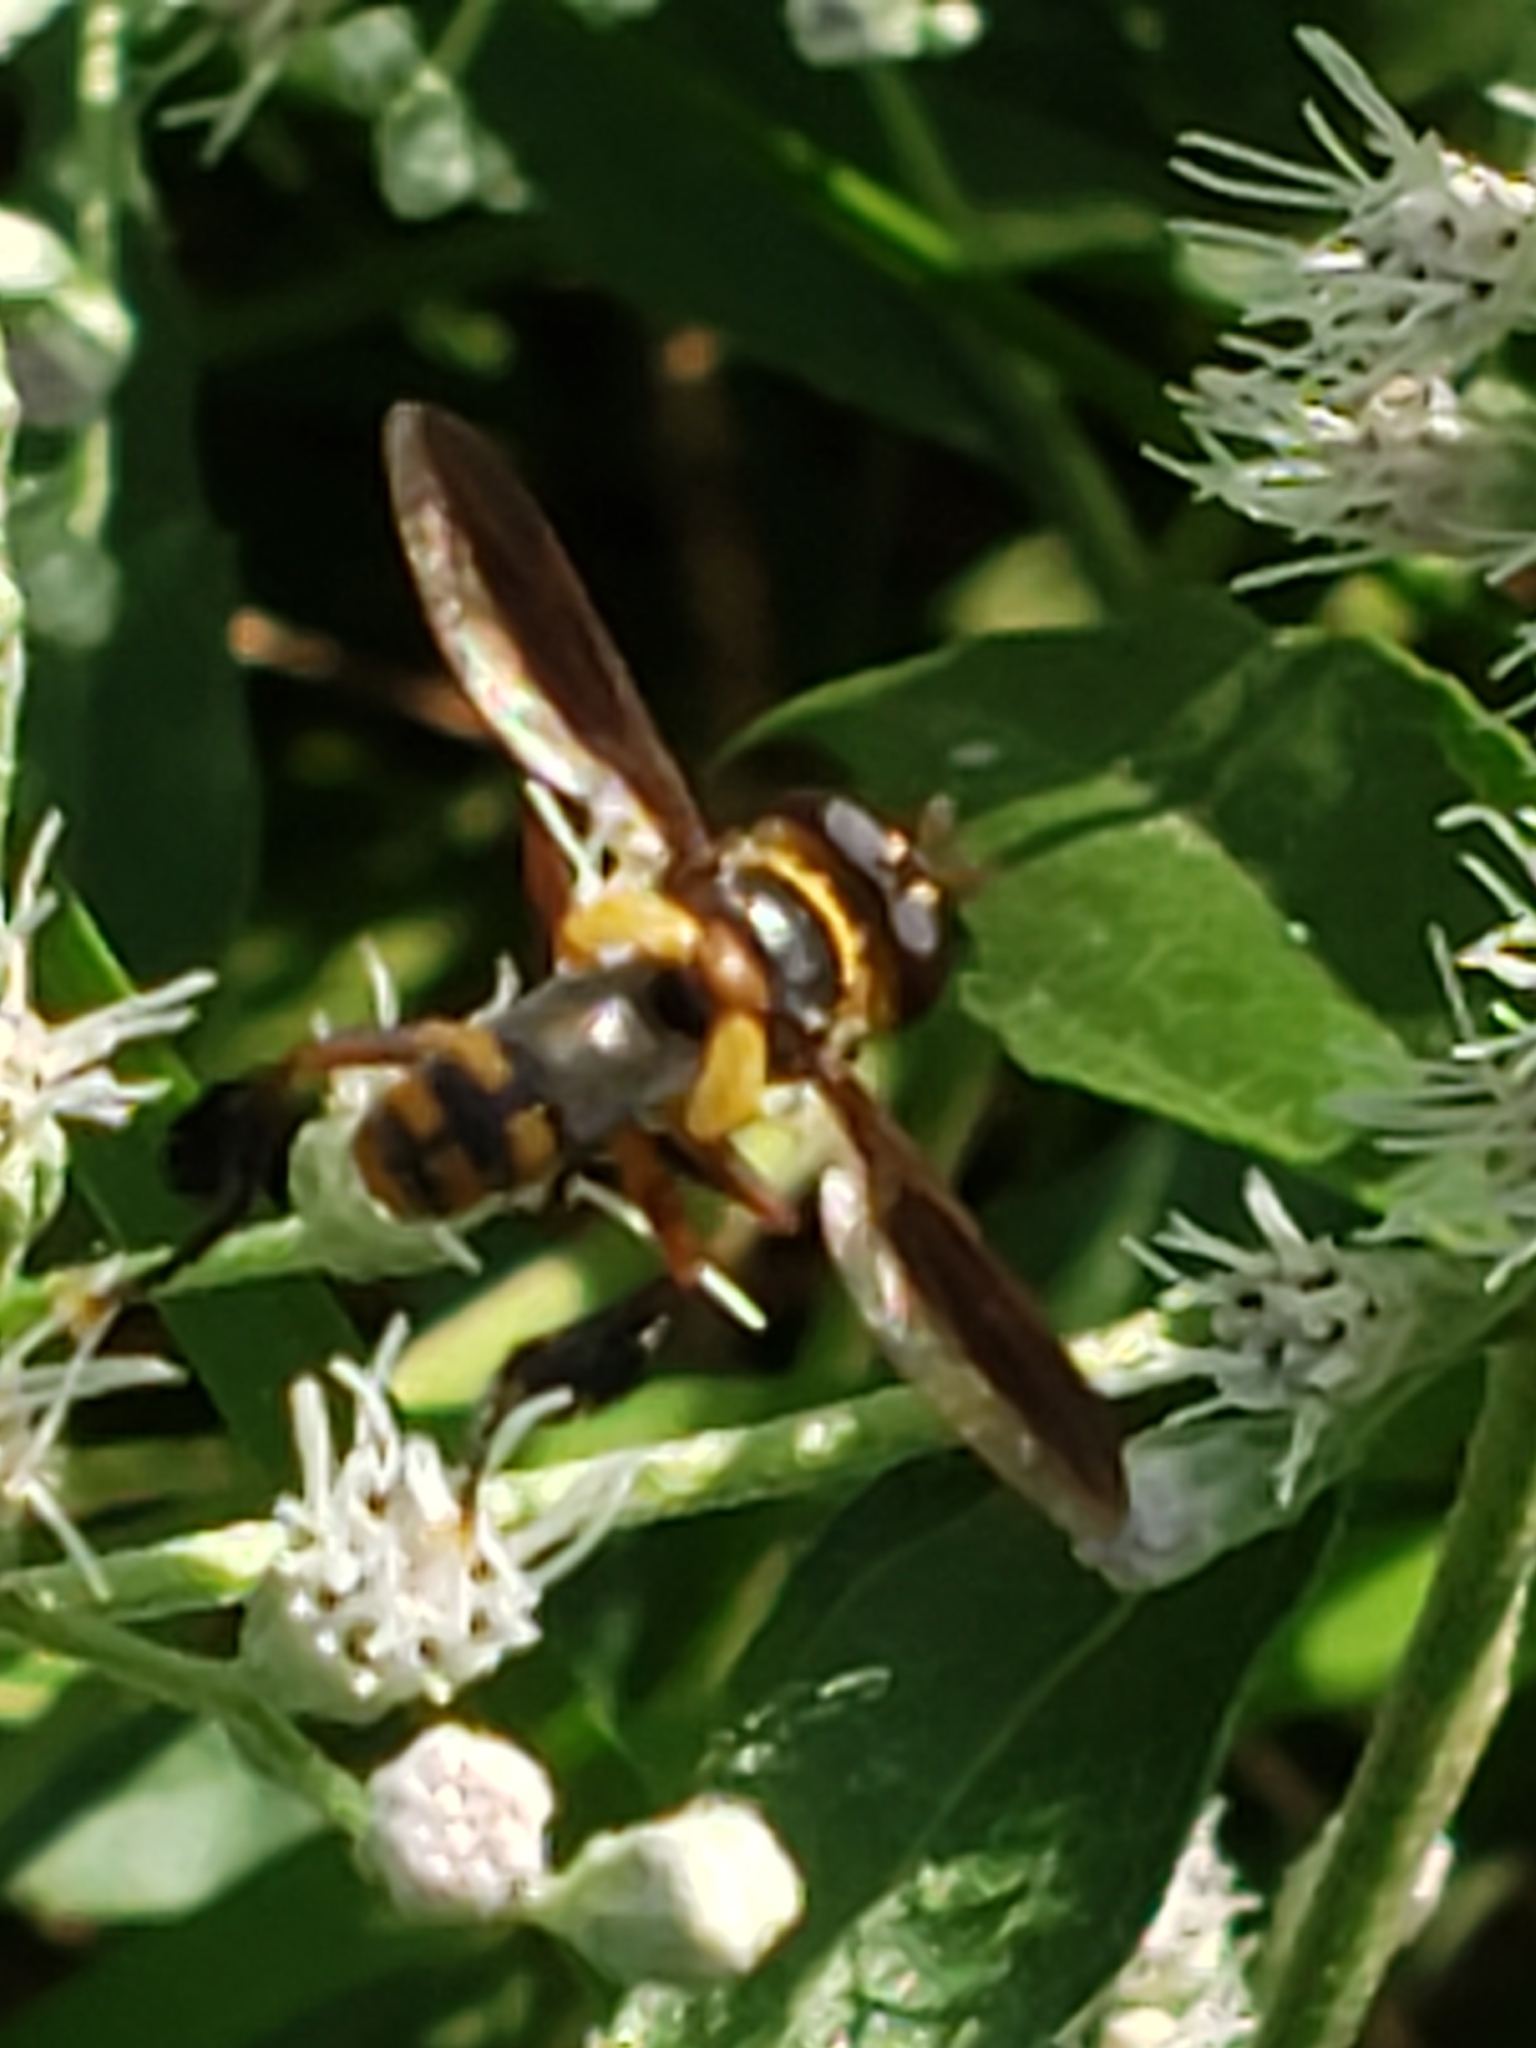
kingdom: Animalia
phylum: Arthropoda
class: Insecta
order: Diptera
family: Tachinidae
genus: Trichopoda
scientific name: Trichopoda plumipes
